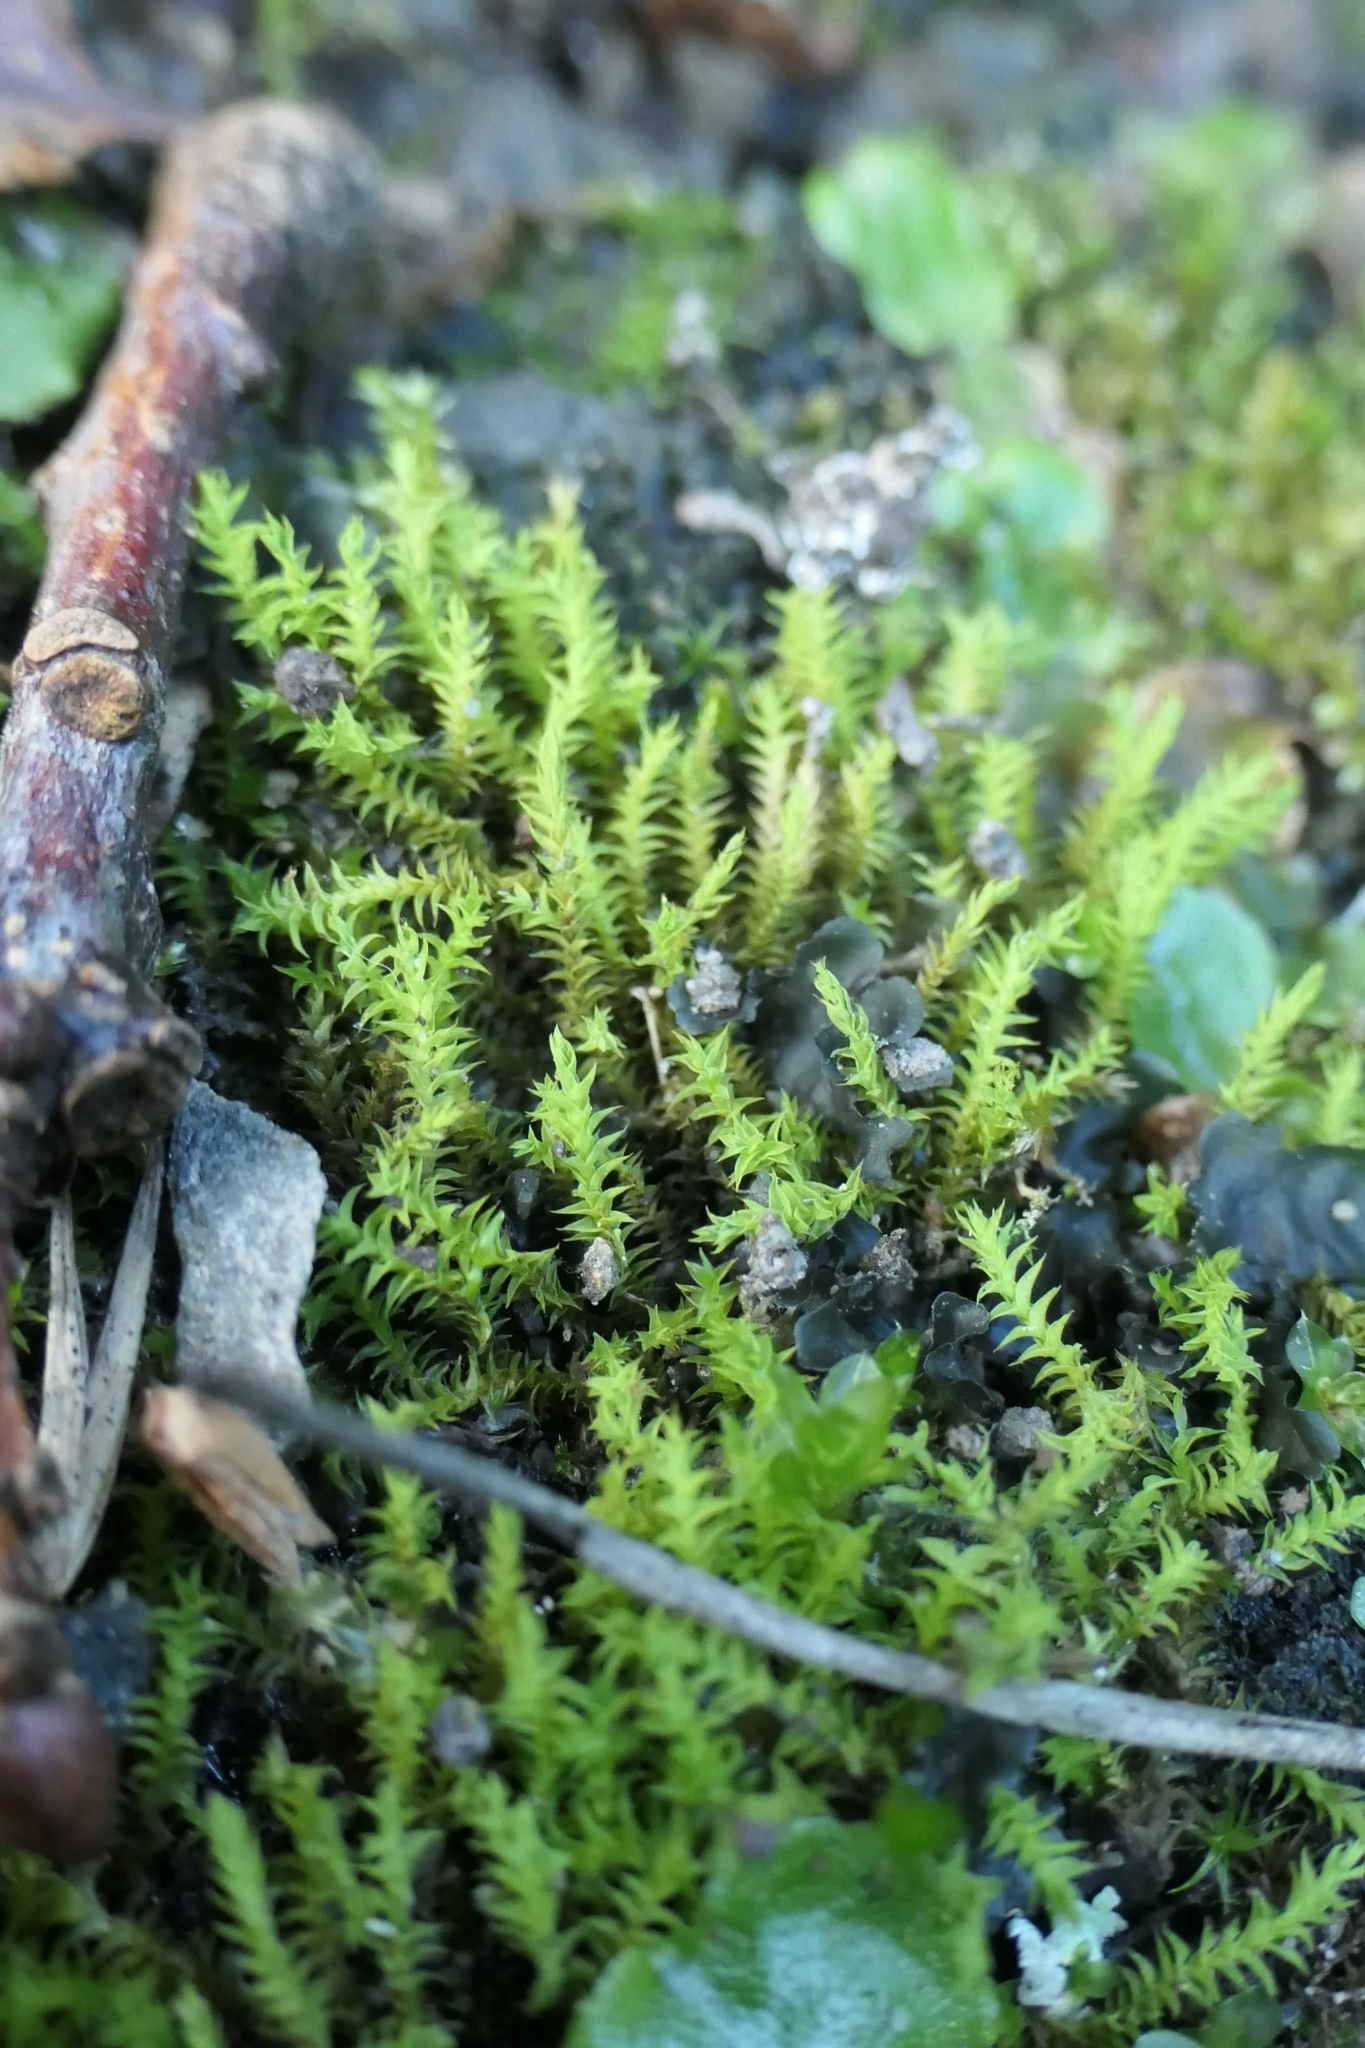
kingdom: Plantae
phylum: Bryophyta
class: Bryopsida
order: Pottiales
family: Pottiaceae
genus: Triquetrella
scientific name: Triquetrella papillata
